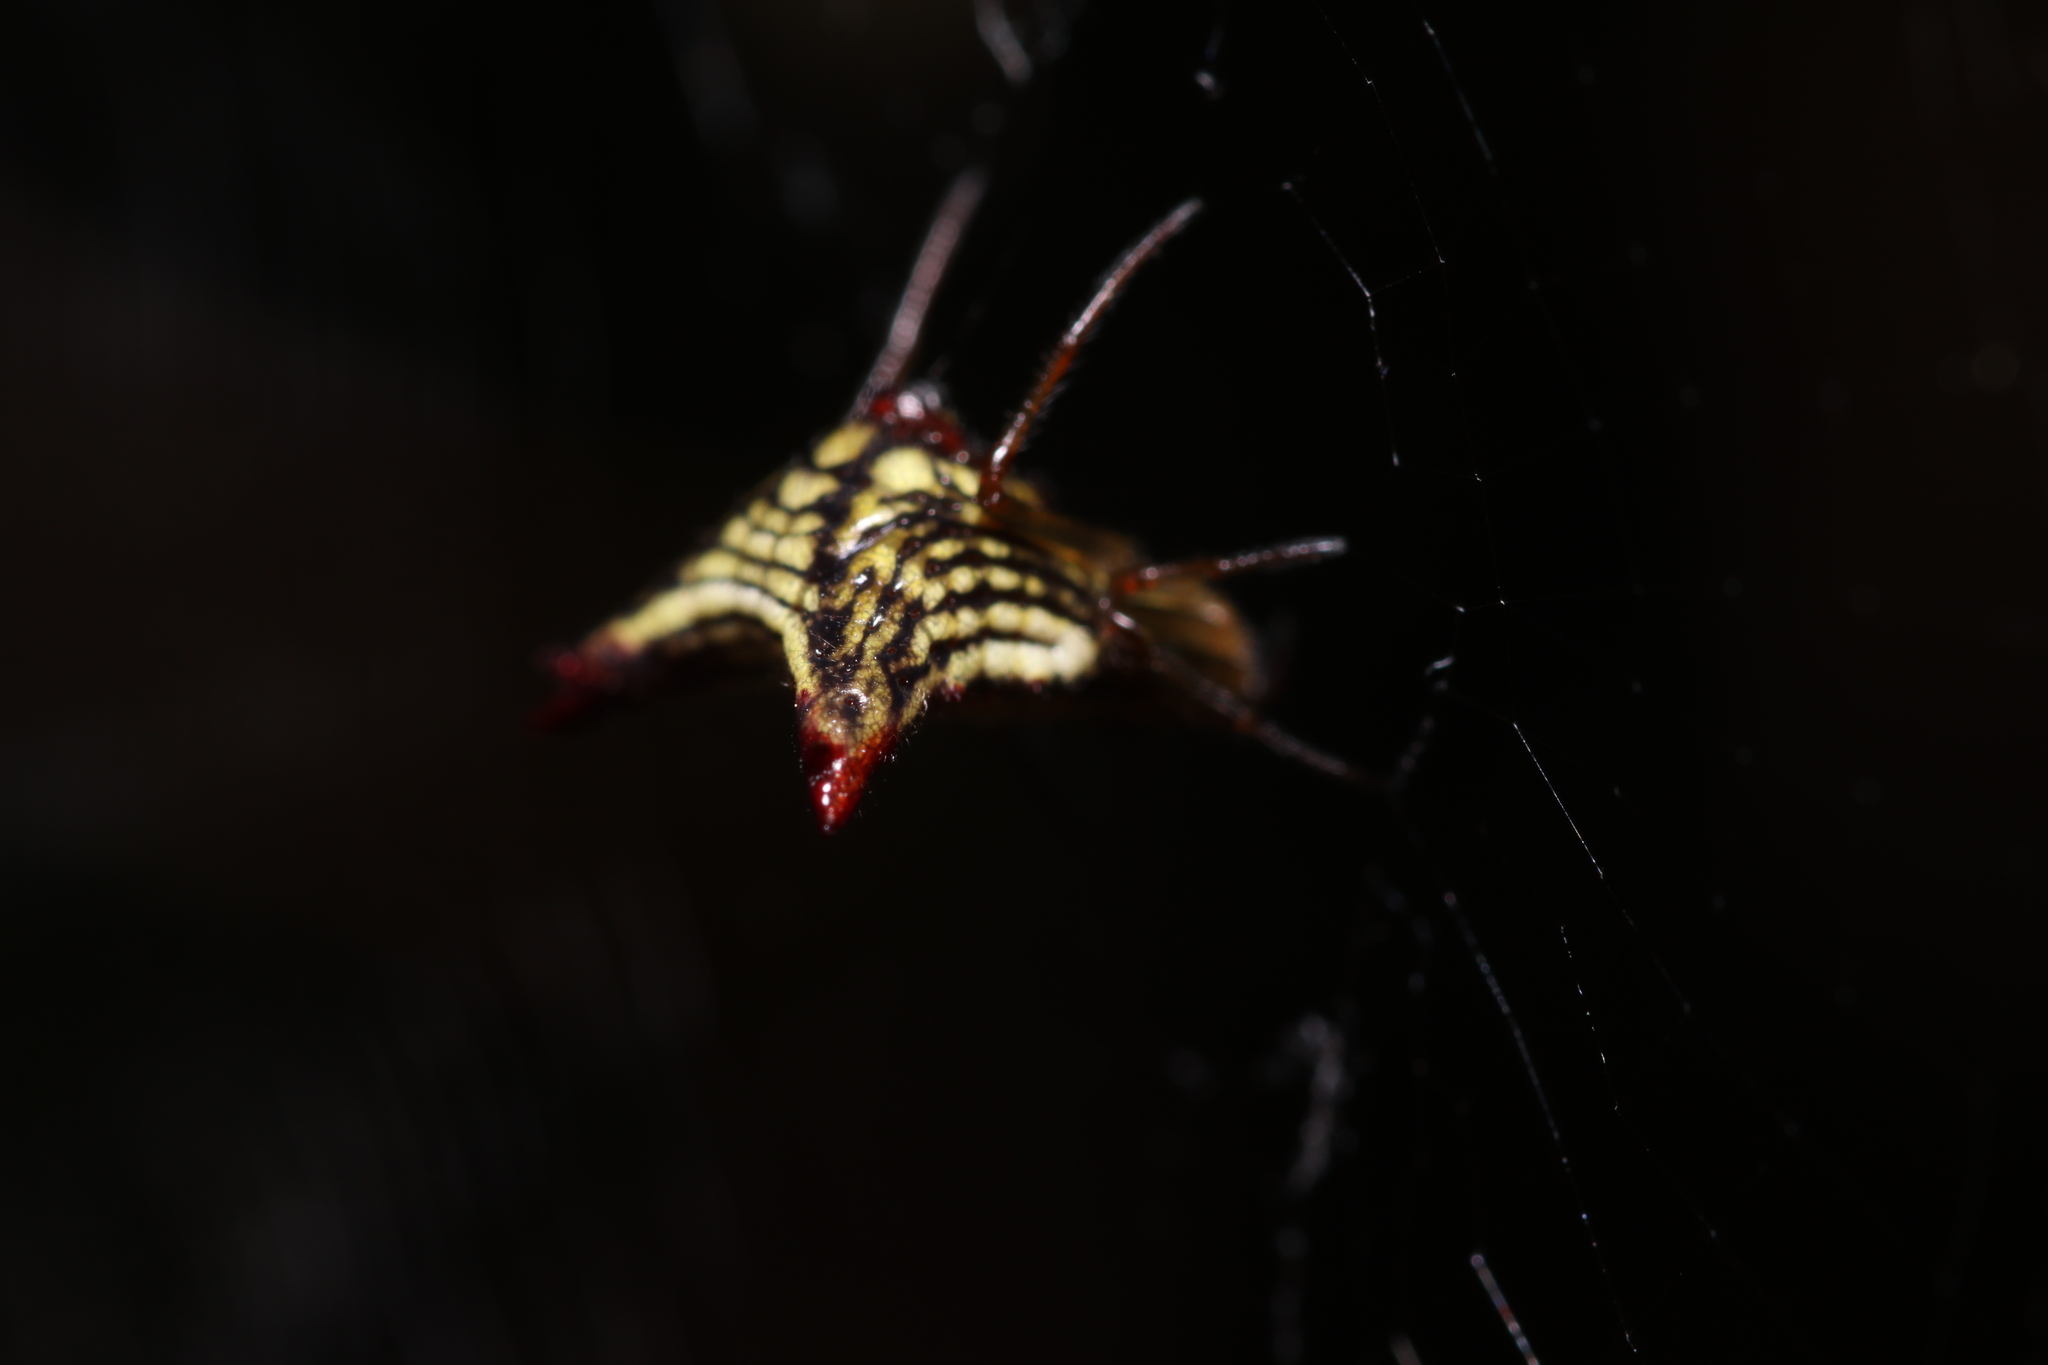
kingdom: Animalia
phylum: Arthropoda
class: Arachnida
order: Araneae
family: Araneidae
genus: Micrathena
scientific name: Micrathena plana
